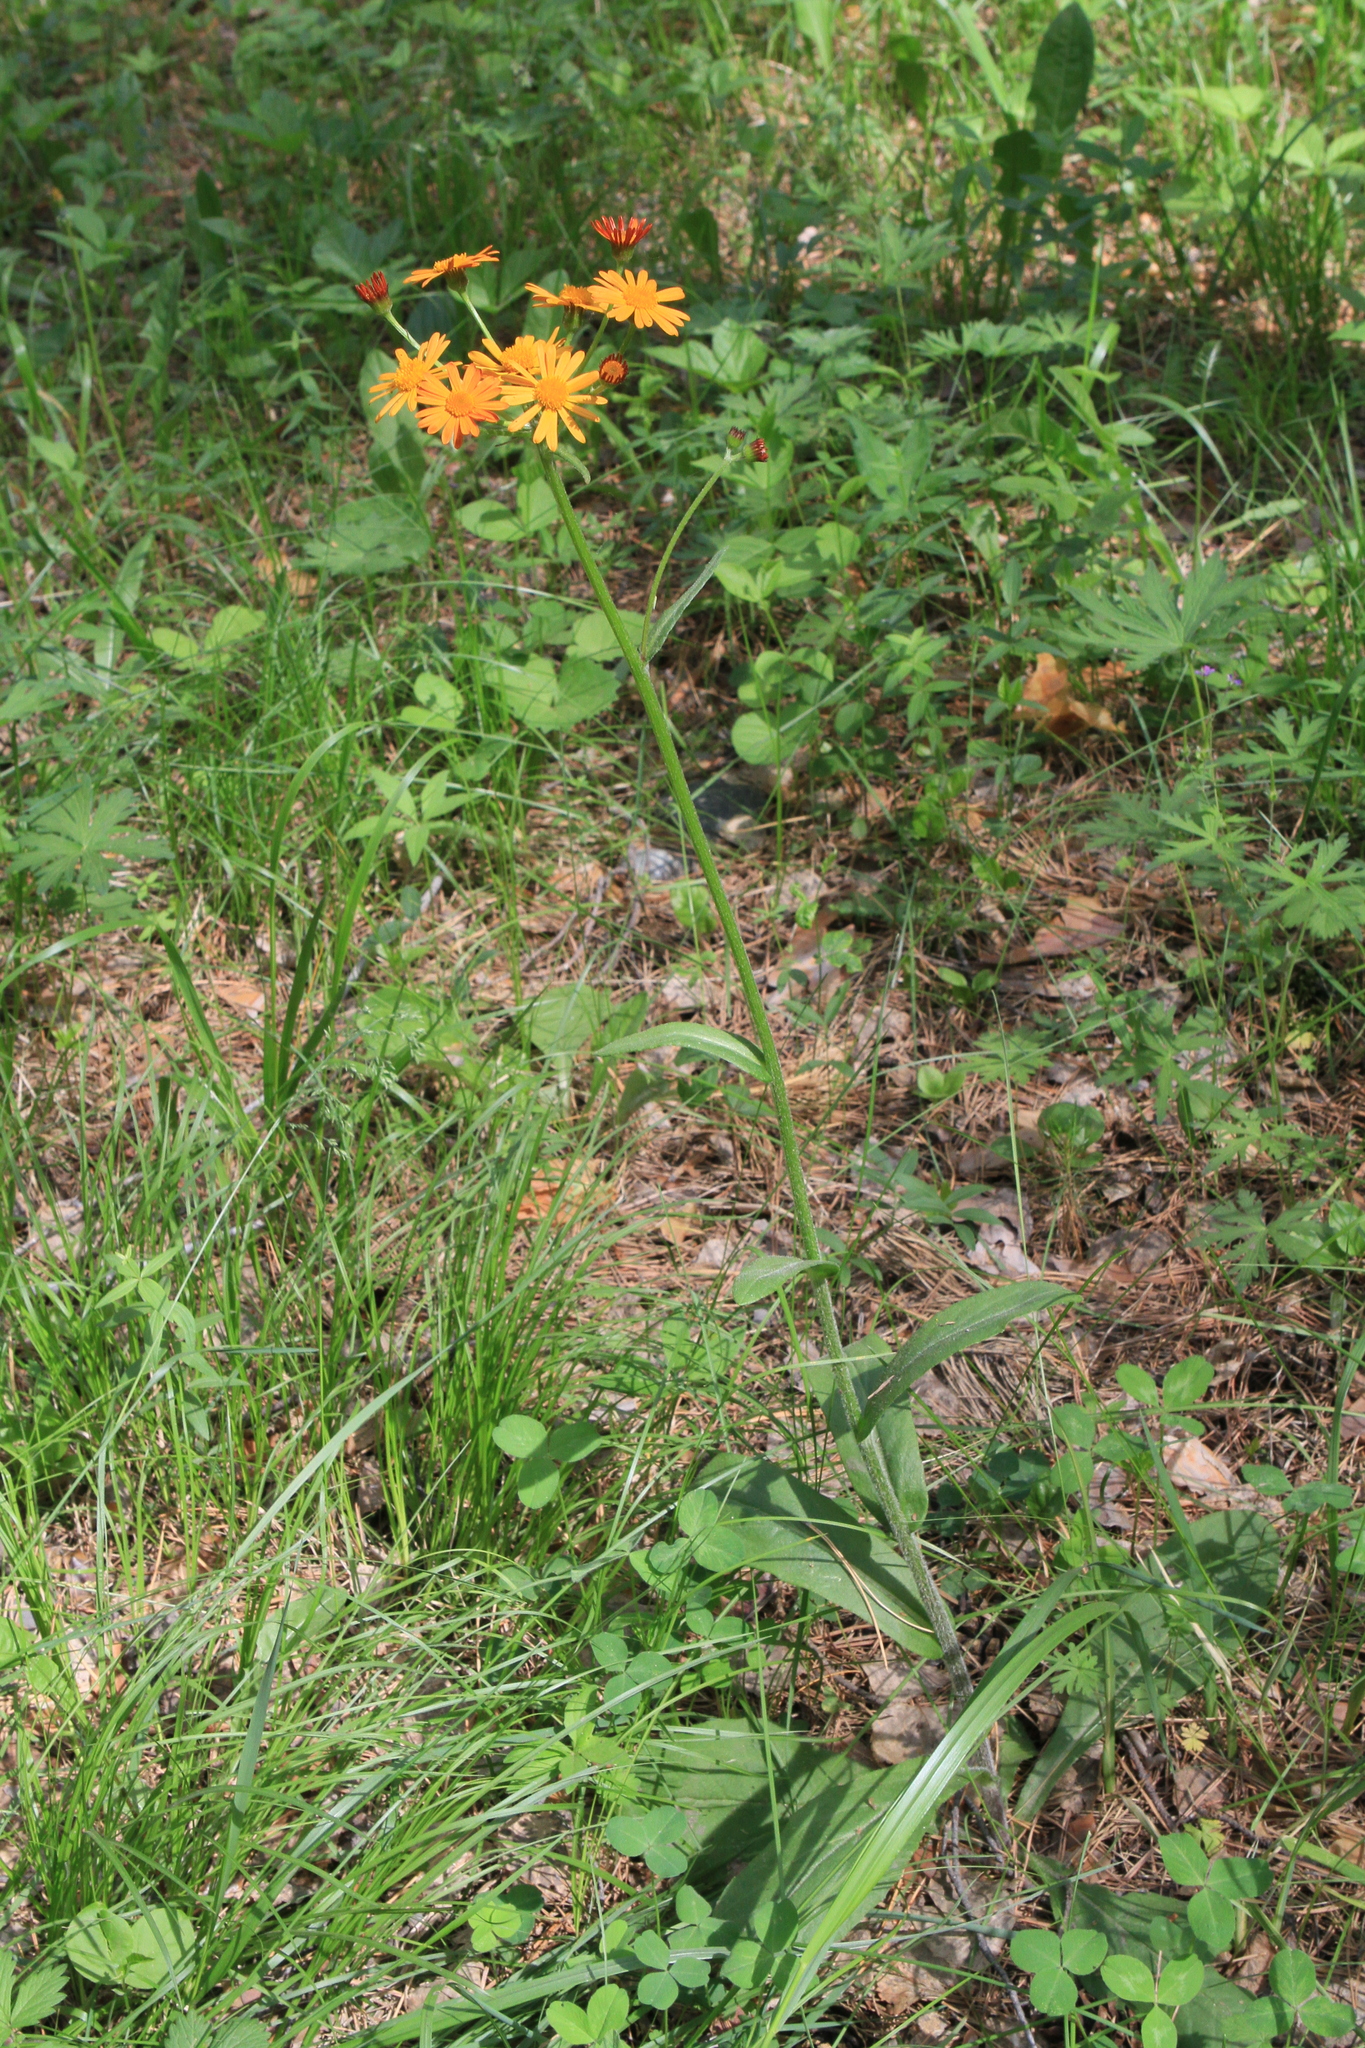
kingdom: Plantae
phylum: Tracheophyta
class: Magnoliopsida
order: Asterales
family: Asteraceae
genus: Tephroseris
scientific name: Tephroseris porphyrantha
